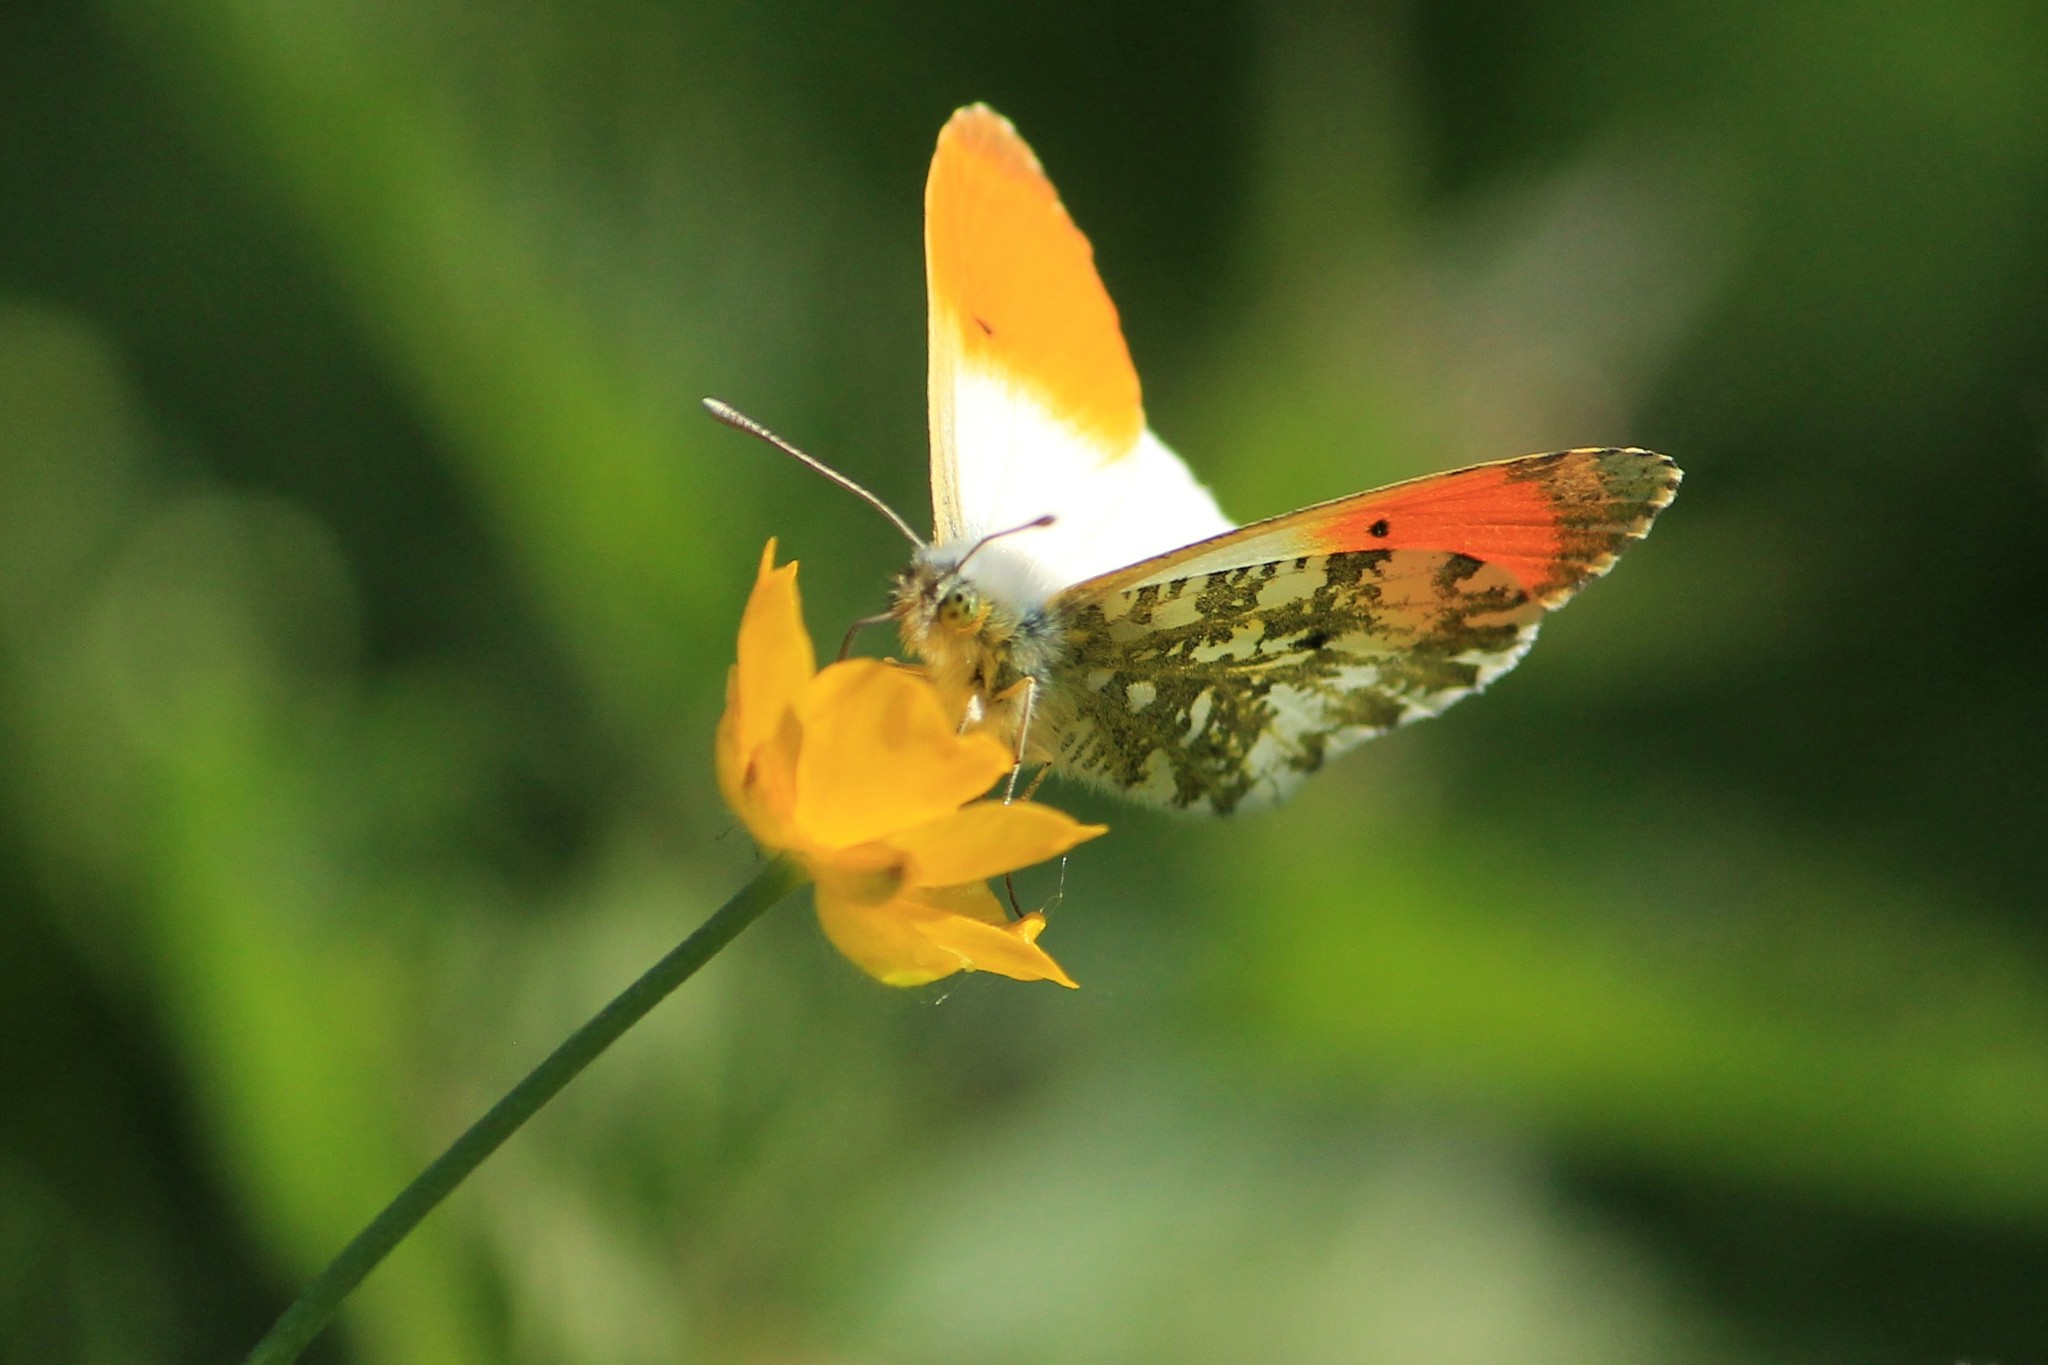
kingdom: Animalia
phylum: Arthropoda
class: Insecta
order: Lepidoptera
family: Pieridae
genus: Anthocharis
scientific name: Anthocharis cardamines
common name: Orange-tip
